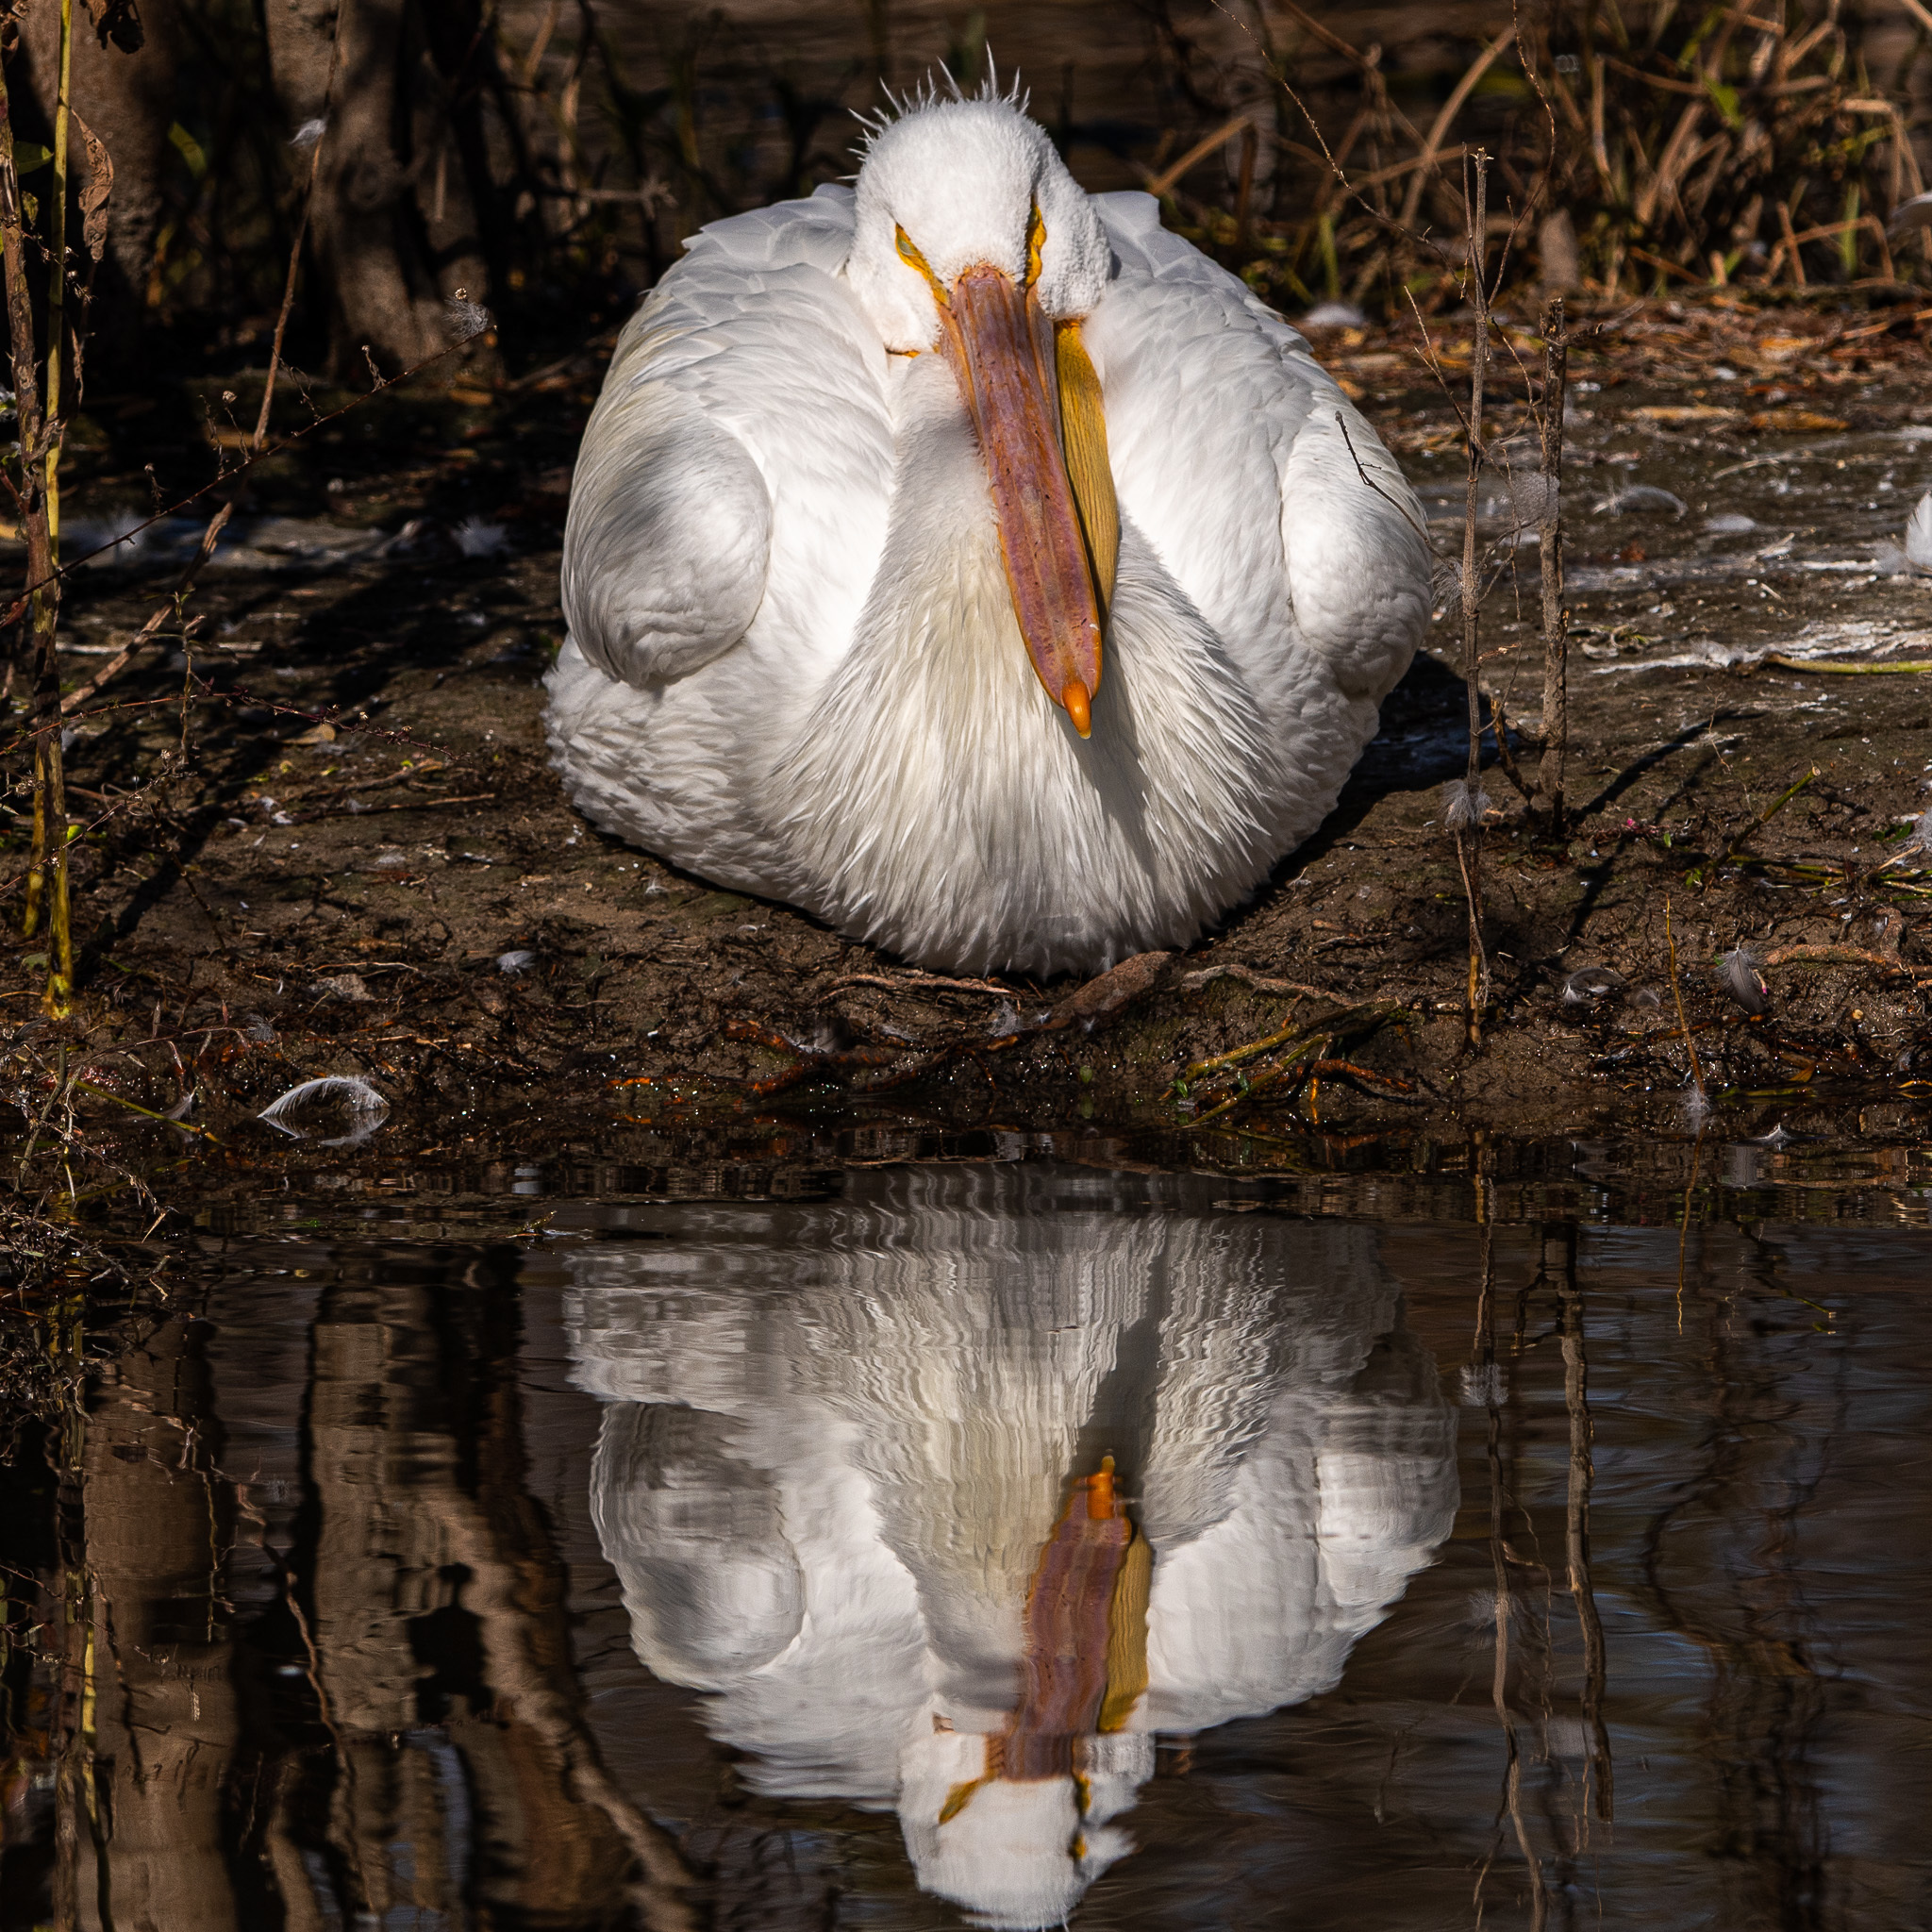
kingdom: Animalia
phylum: Chordata
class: Aves
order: Pelecaniformes
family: Pelecanidae
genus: Pelecanus
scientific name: Pelecanus erythrorhynchos
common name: American white pelican
